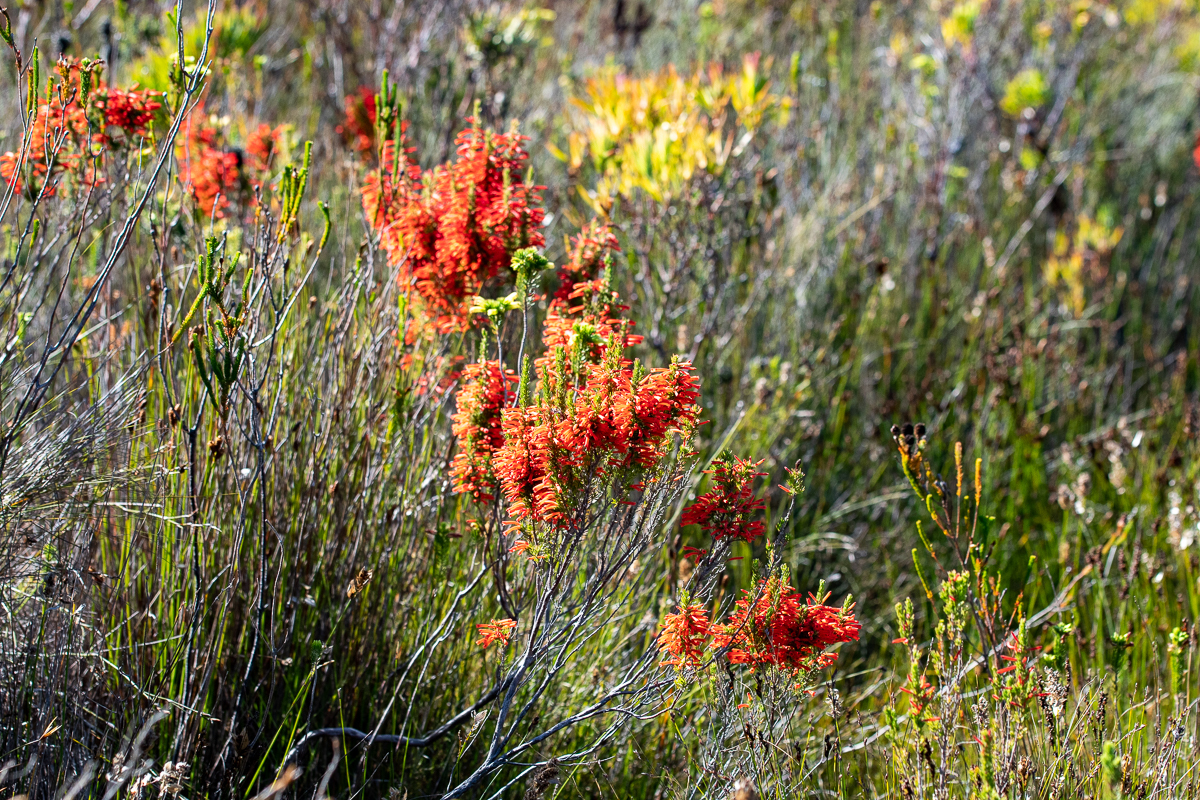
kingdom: Plantae
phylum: Tracheophyta
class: Magnoliopsida
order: Ericales
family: Ericaceae
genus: Erica
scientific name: Erica pillansii
